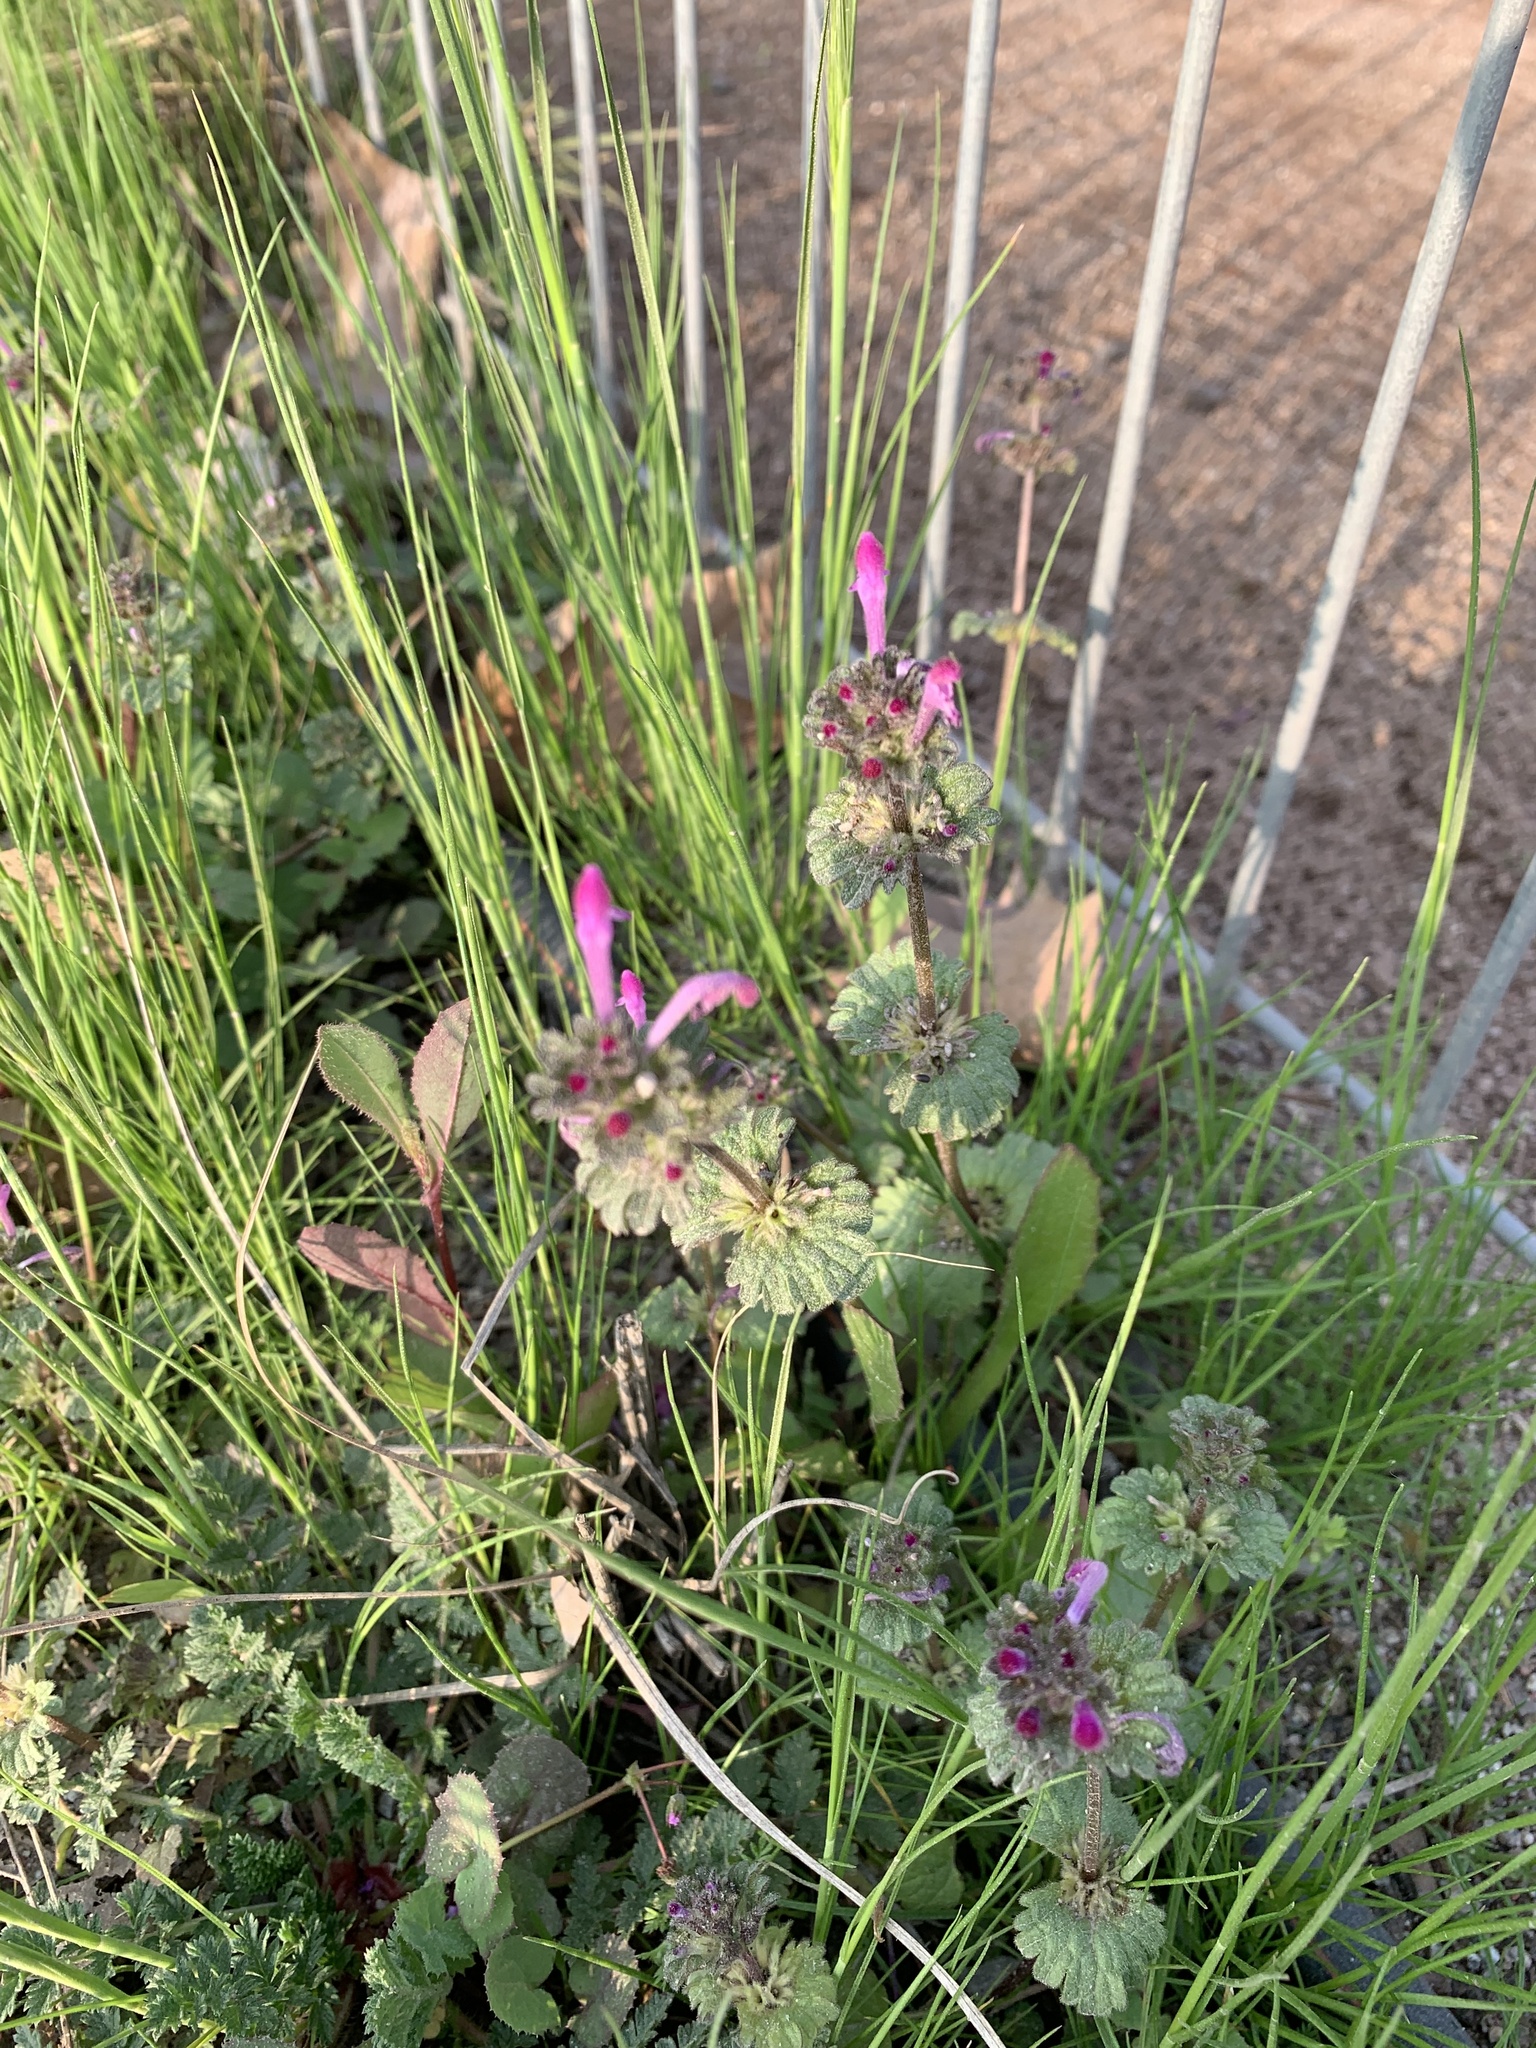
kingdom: Plantae
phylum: Tracheophyta
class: Magnoliopsida
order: Lamiales
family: Lamiaceae
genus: Lamium
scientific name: Lamium amplexicaule
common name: Henbit dead-nettle
